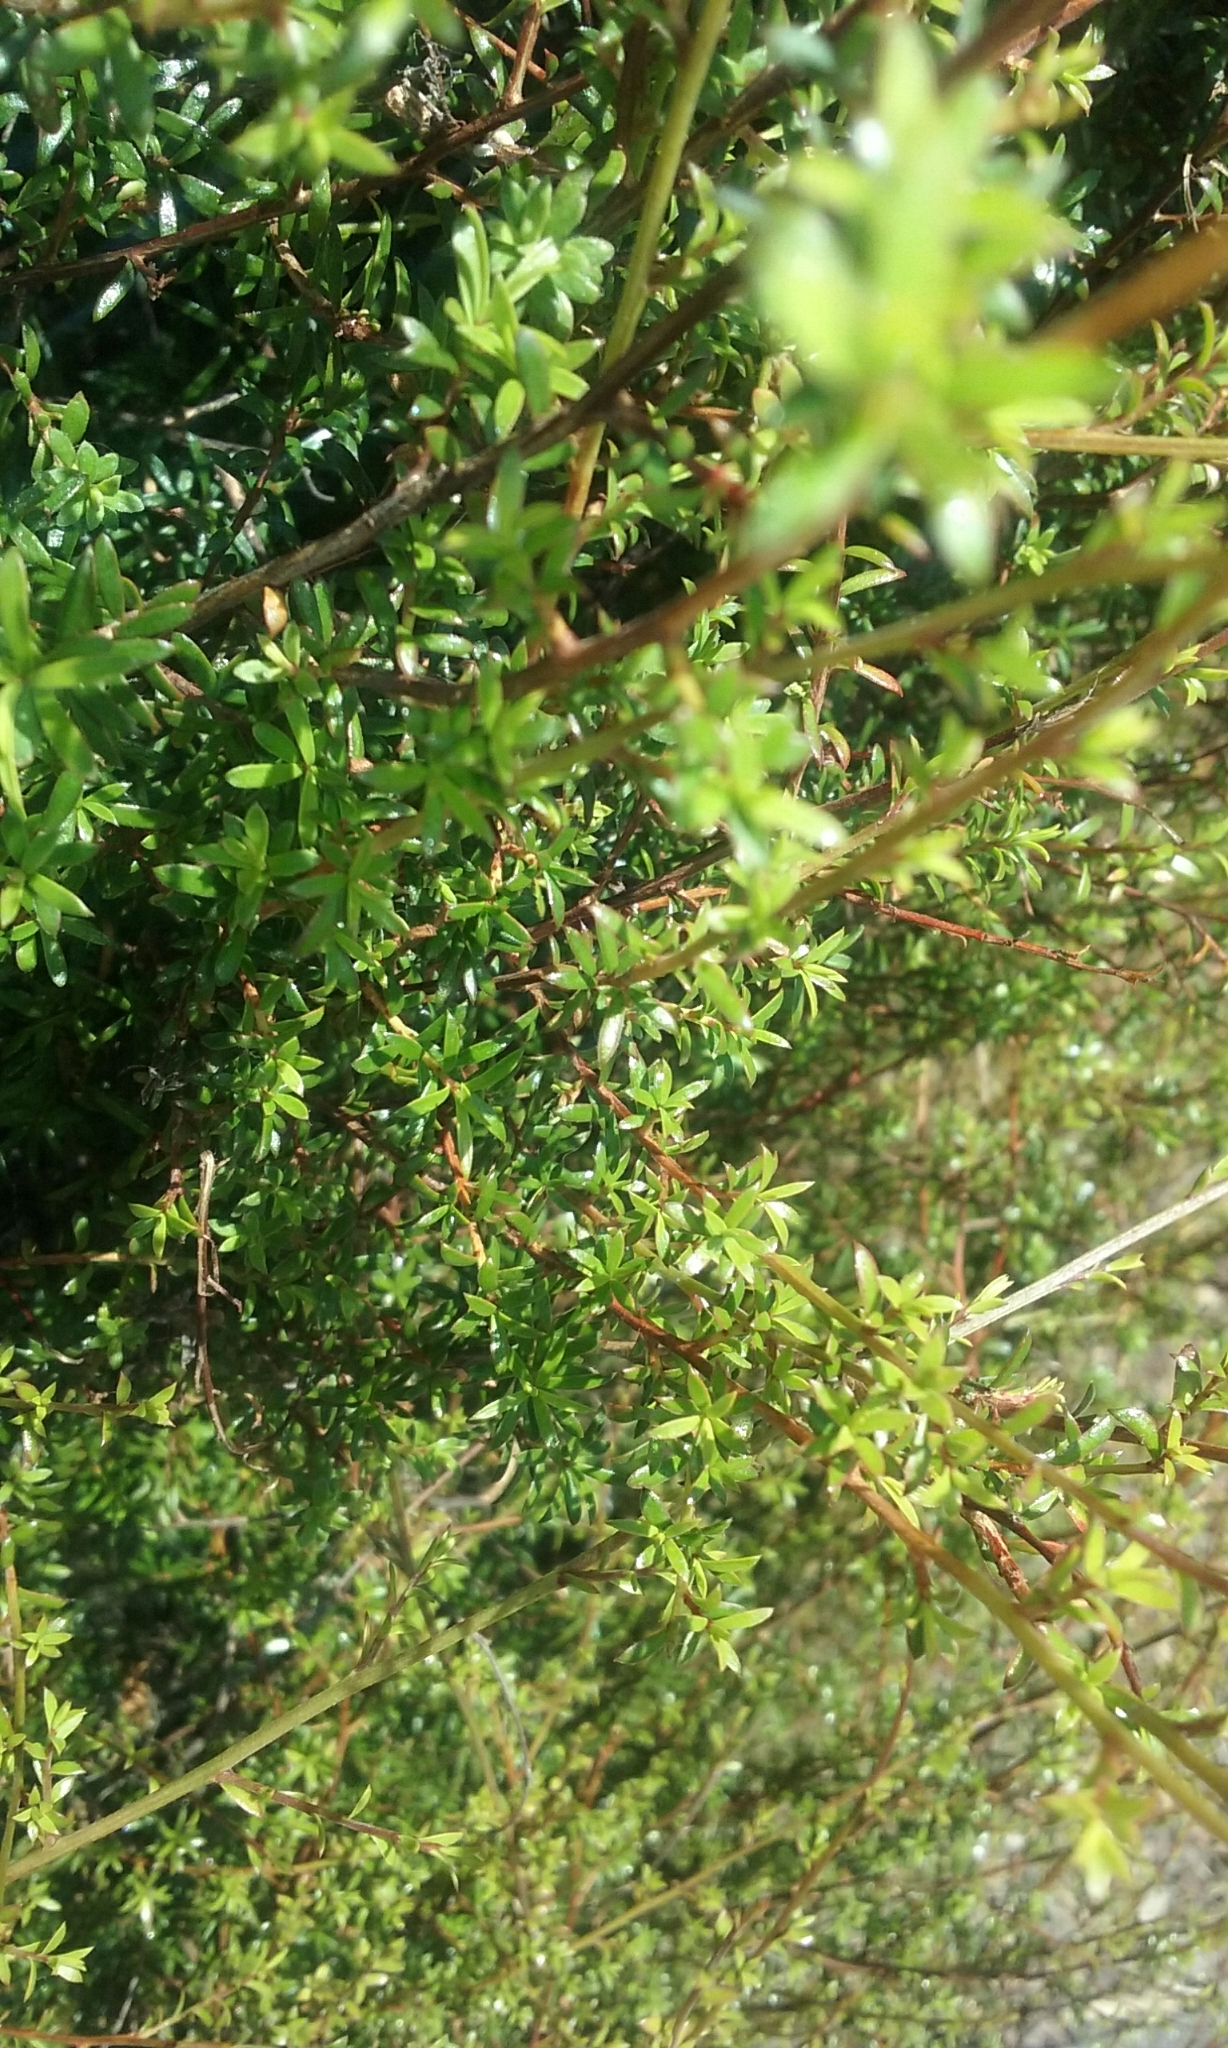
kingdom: Plantae
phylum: Tracheophyta
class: Magnoliopsida
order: Myrtales
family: Myrtaceae
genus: Kunzea
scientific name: Kunzea robusta
